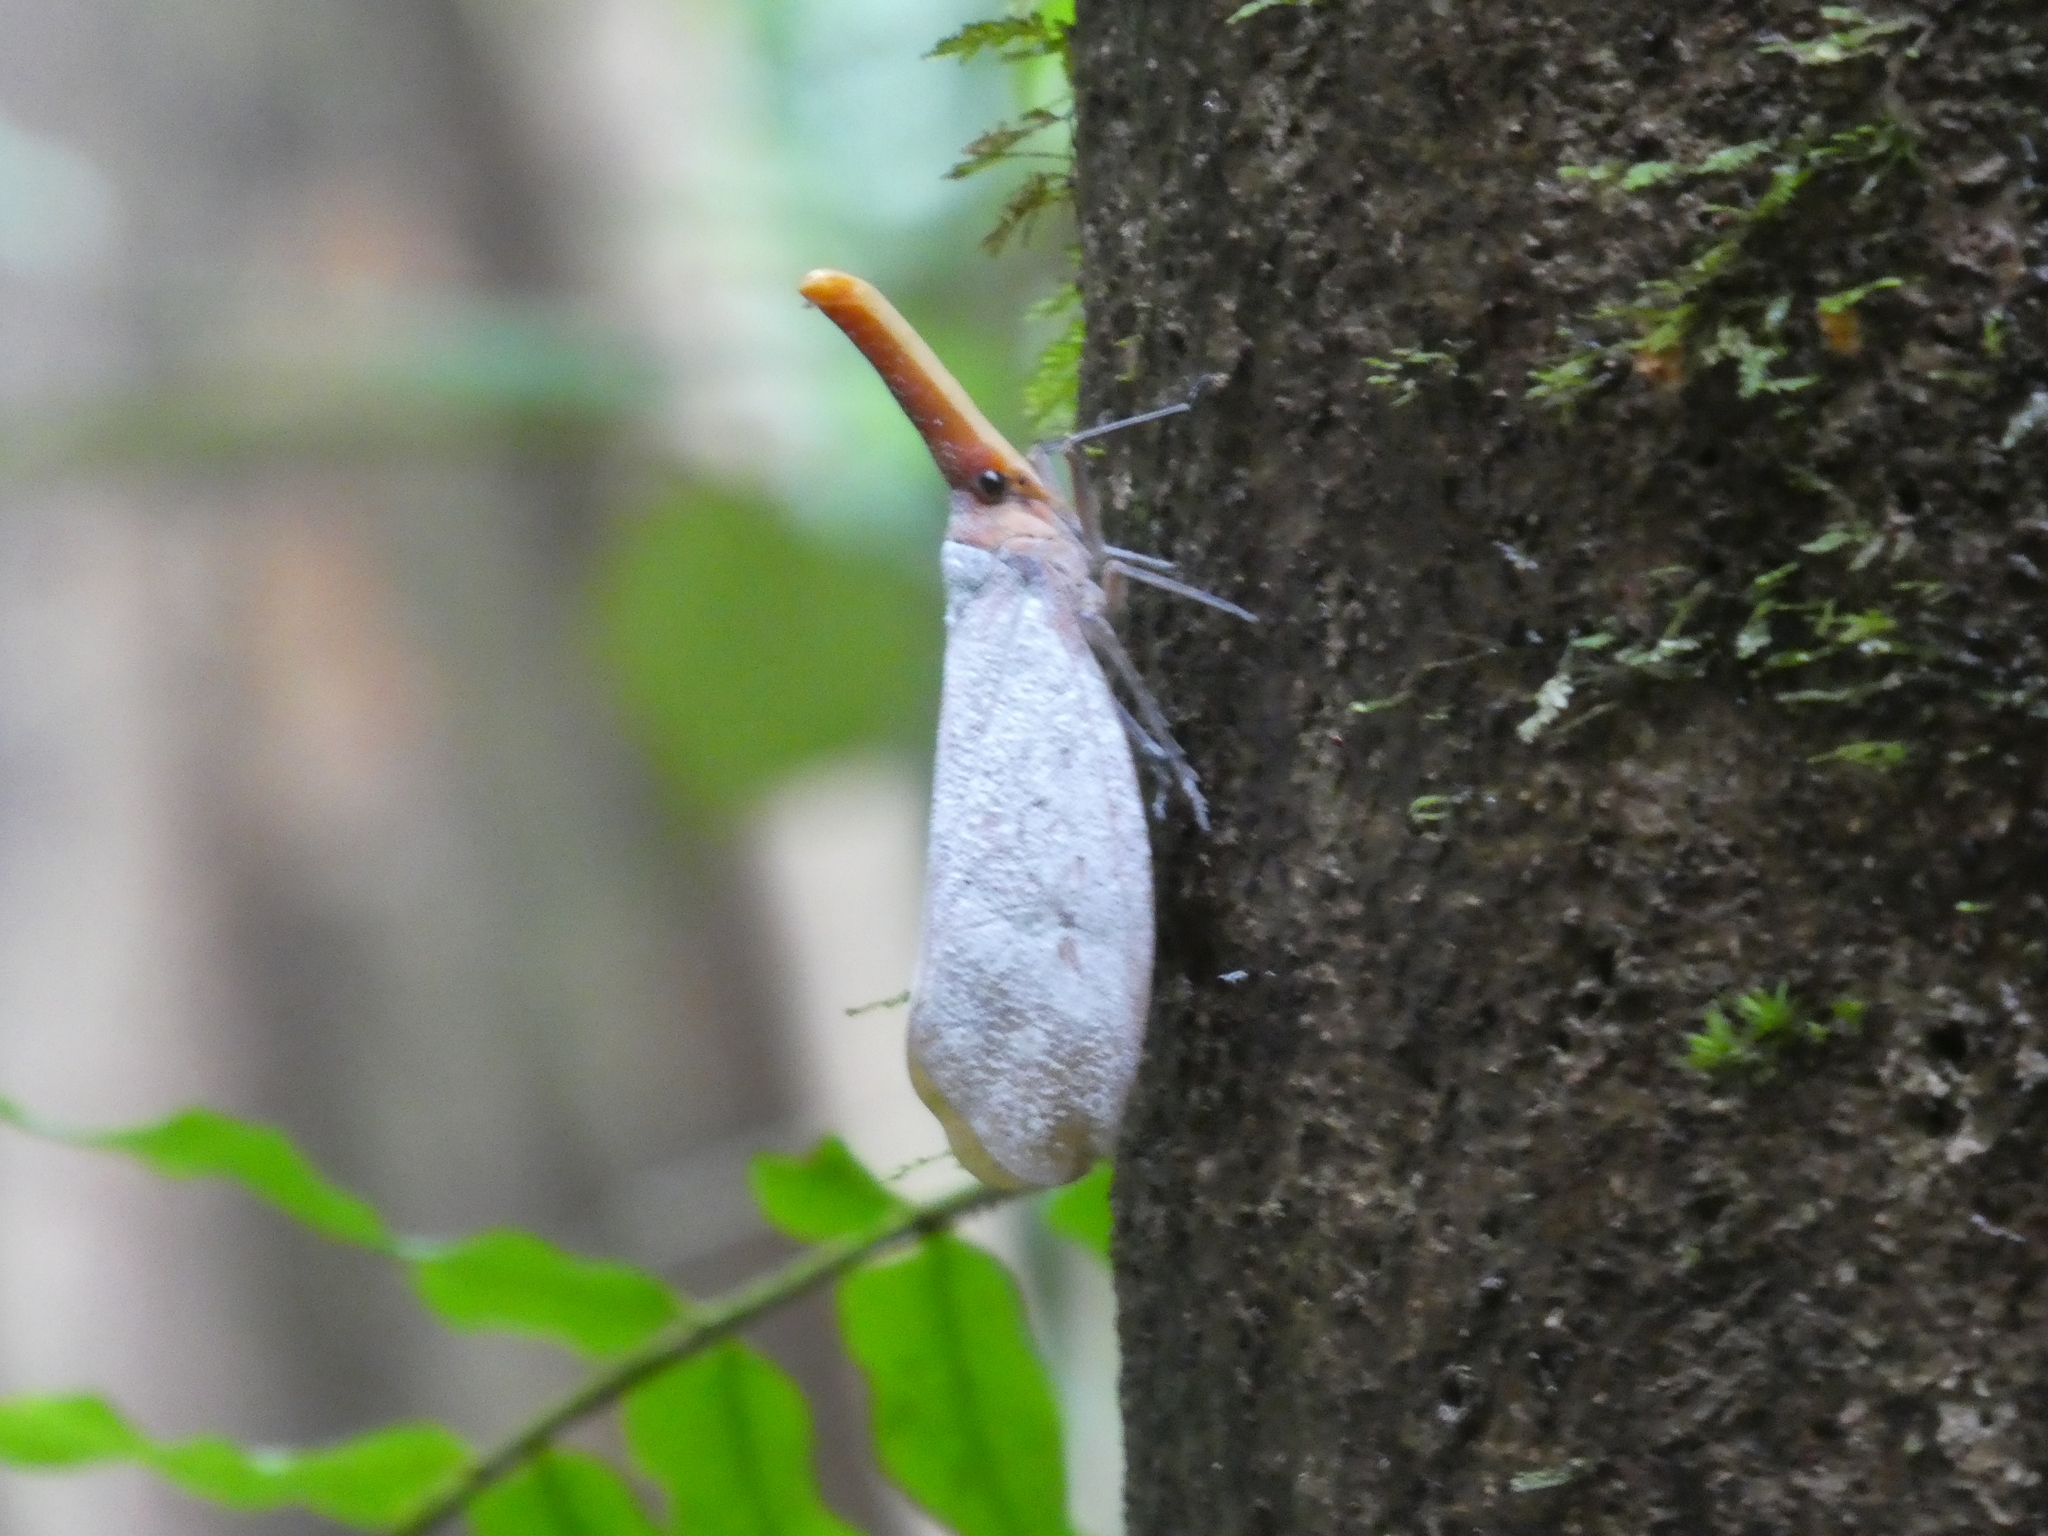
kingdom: Animalia
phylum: Arthropoda
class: Insecta
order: Hemiptera
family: Fulgoridae
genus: Pyrops
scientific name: Pyrops sultanus
